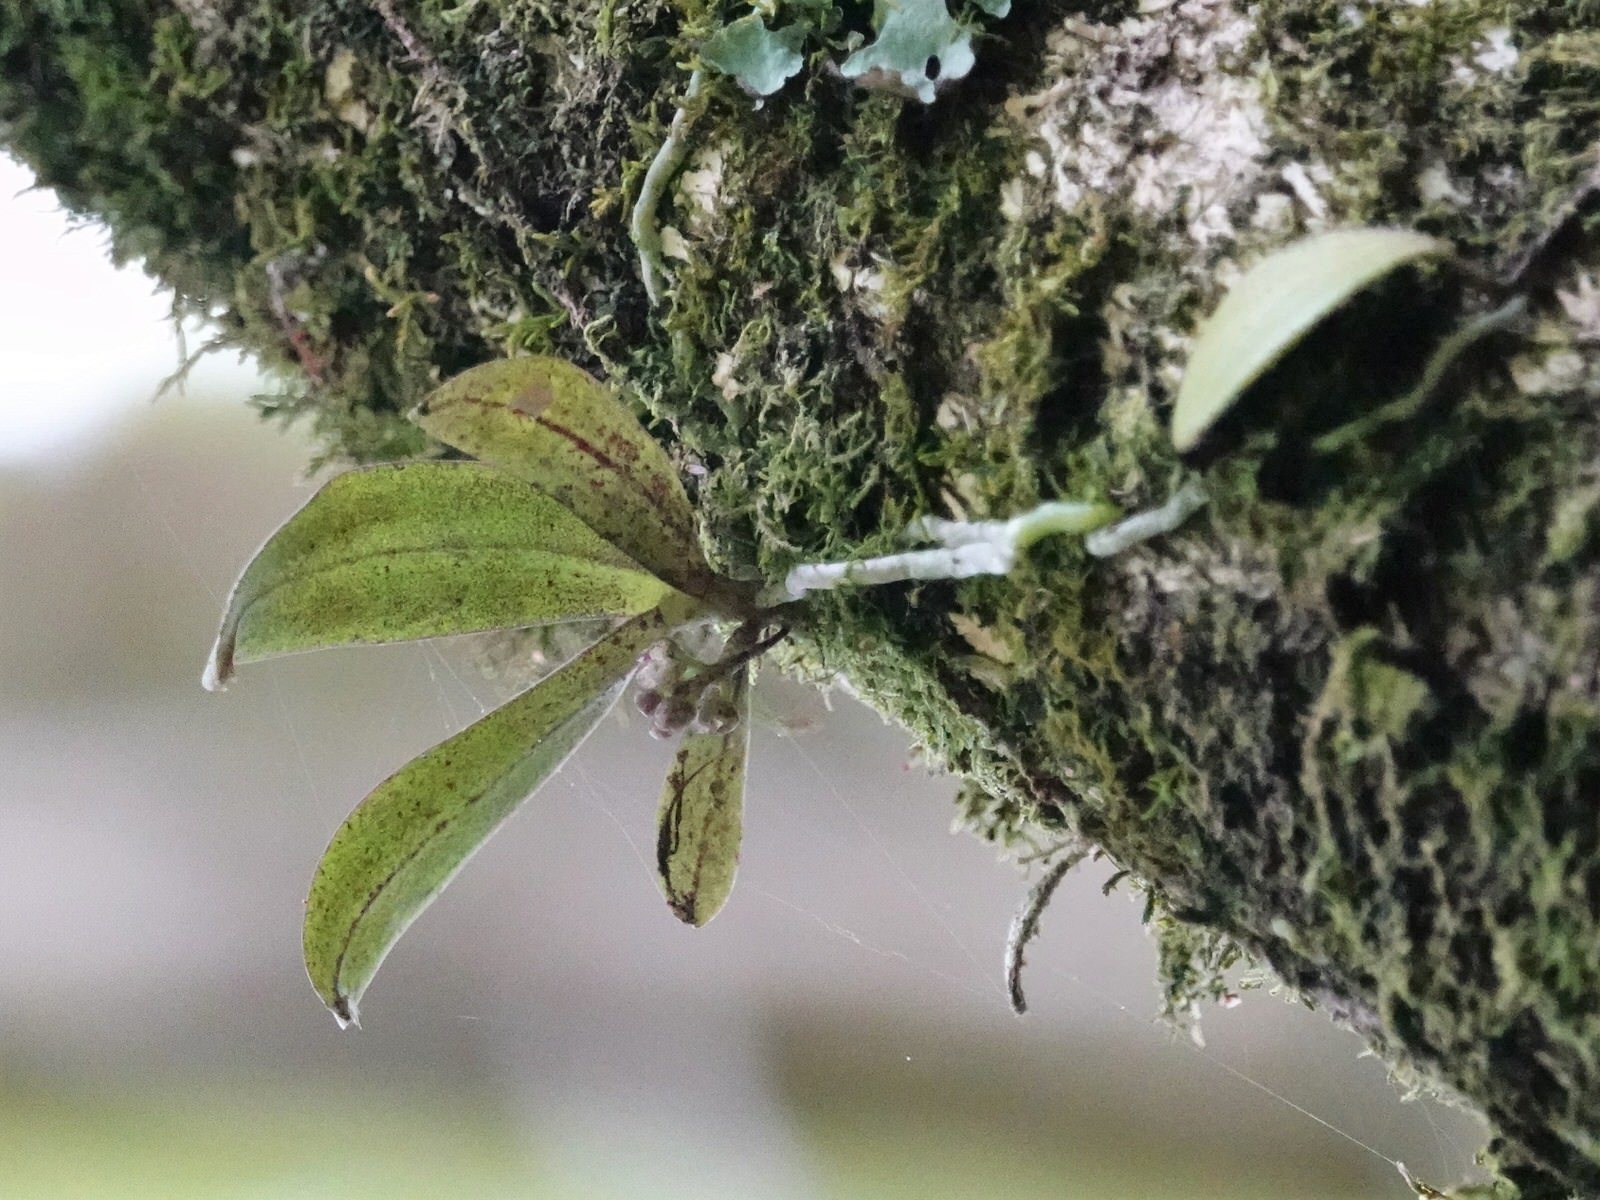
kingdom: Plantae
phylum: Tracheophyta
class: Liliopsida
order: Asparagales
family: Orchidaceae
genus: Drymoanthus
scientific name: Drymoanthus adversus
